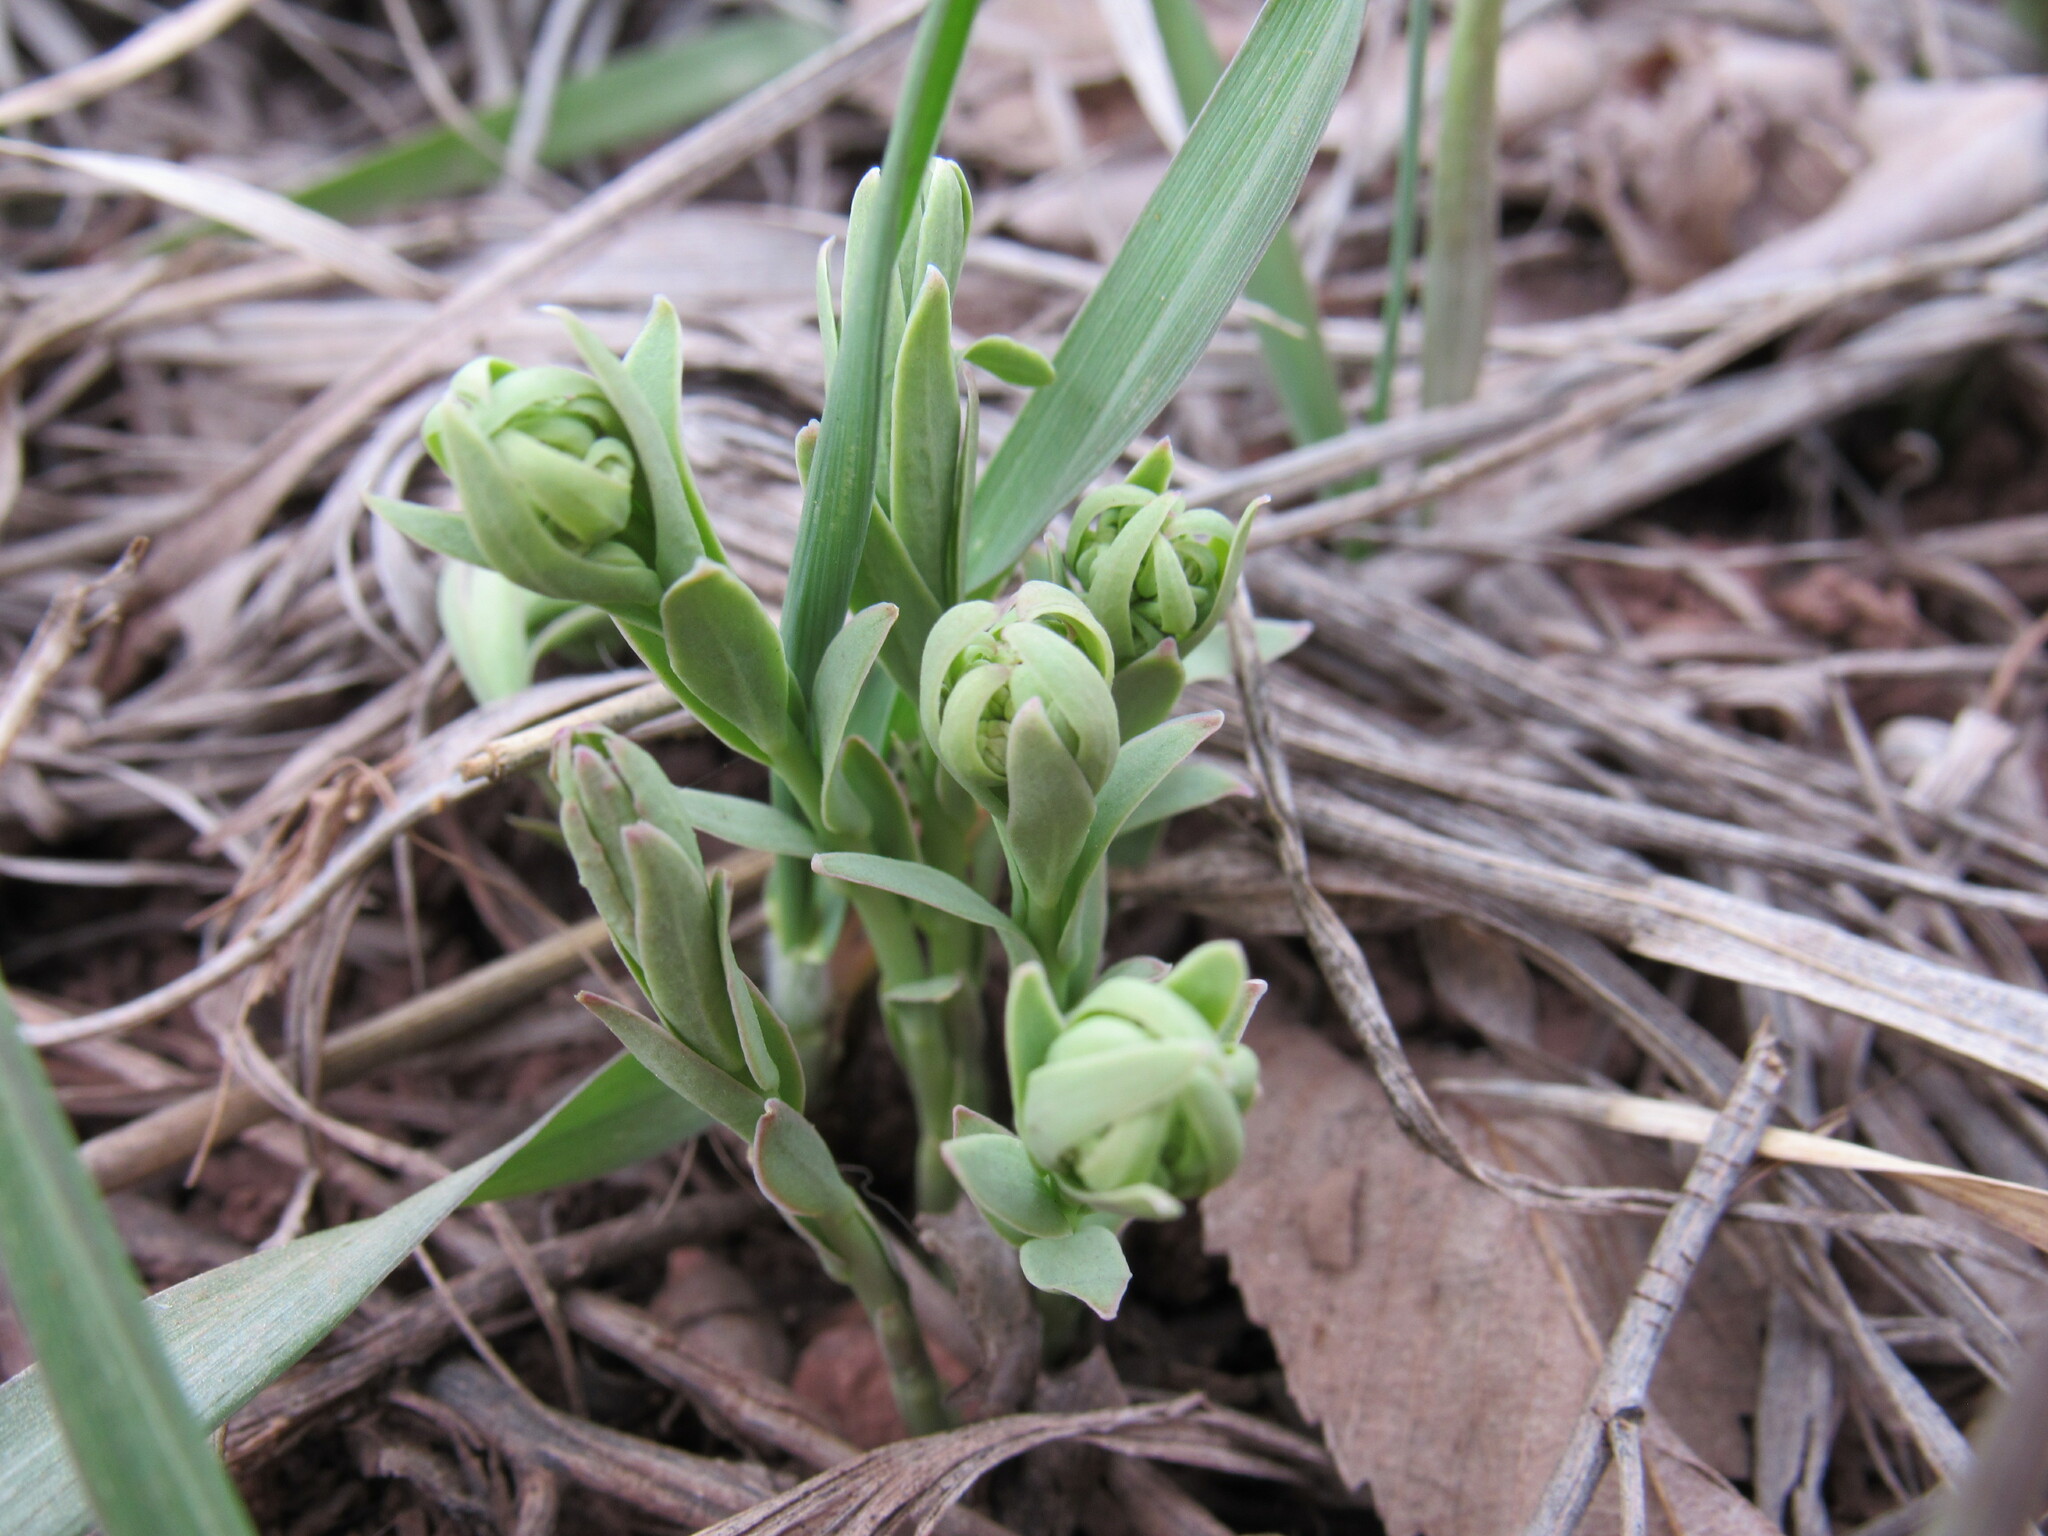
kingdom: Plantae
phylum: Tracheophyta
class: Magnoliopsida
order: Santalales
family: Comandraceae
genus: Comandra
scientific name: Comandra umbellata
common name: Bastard toadflax
